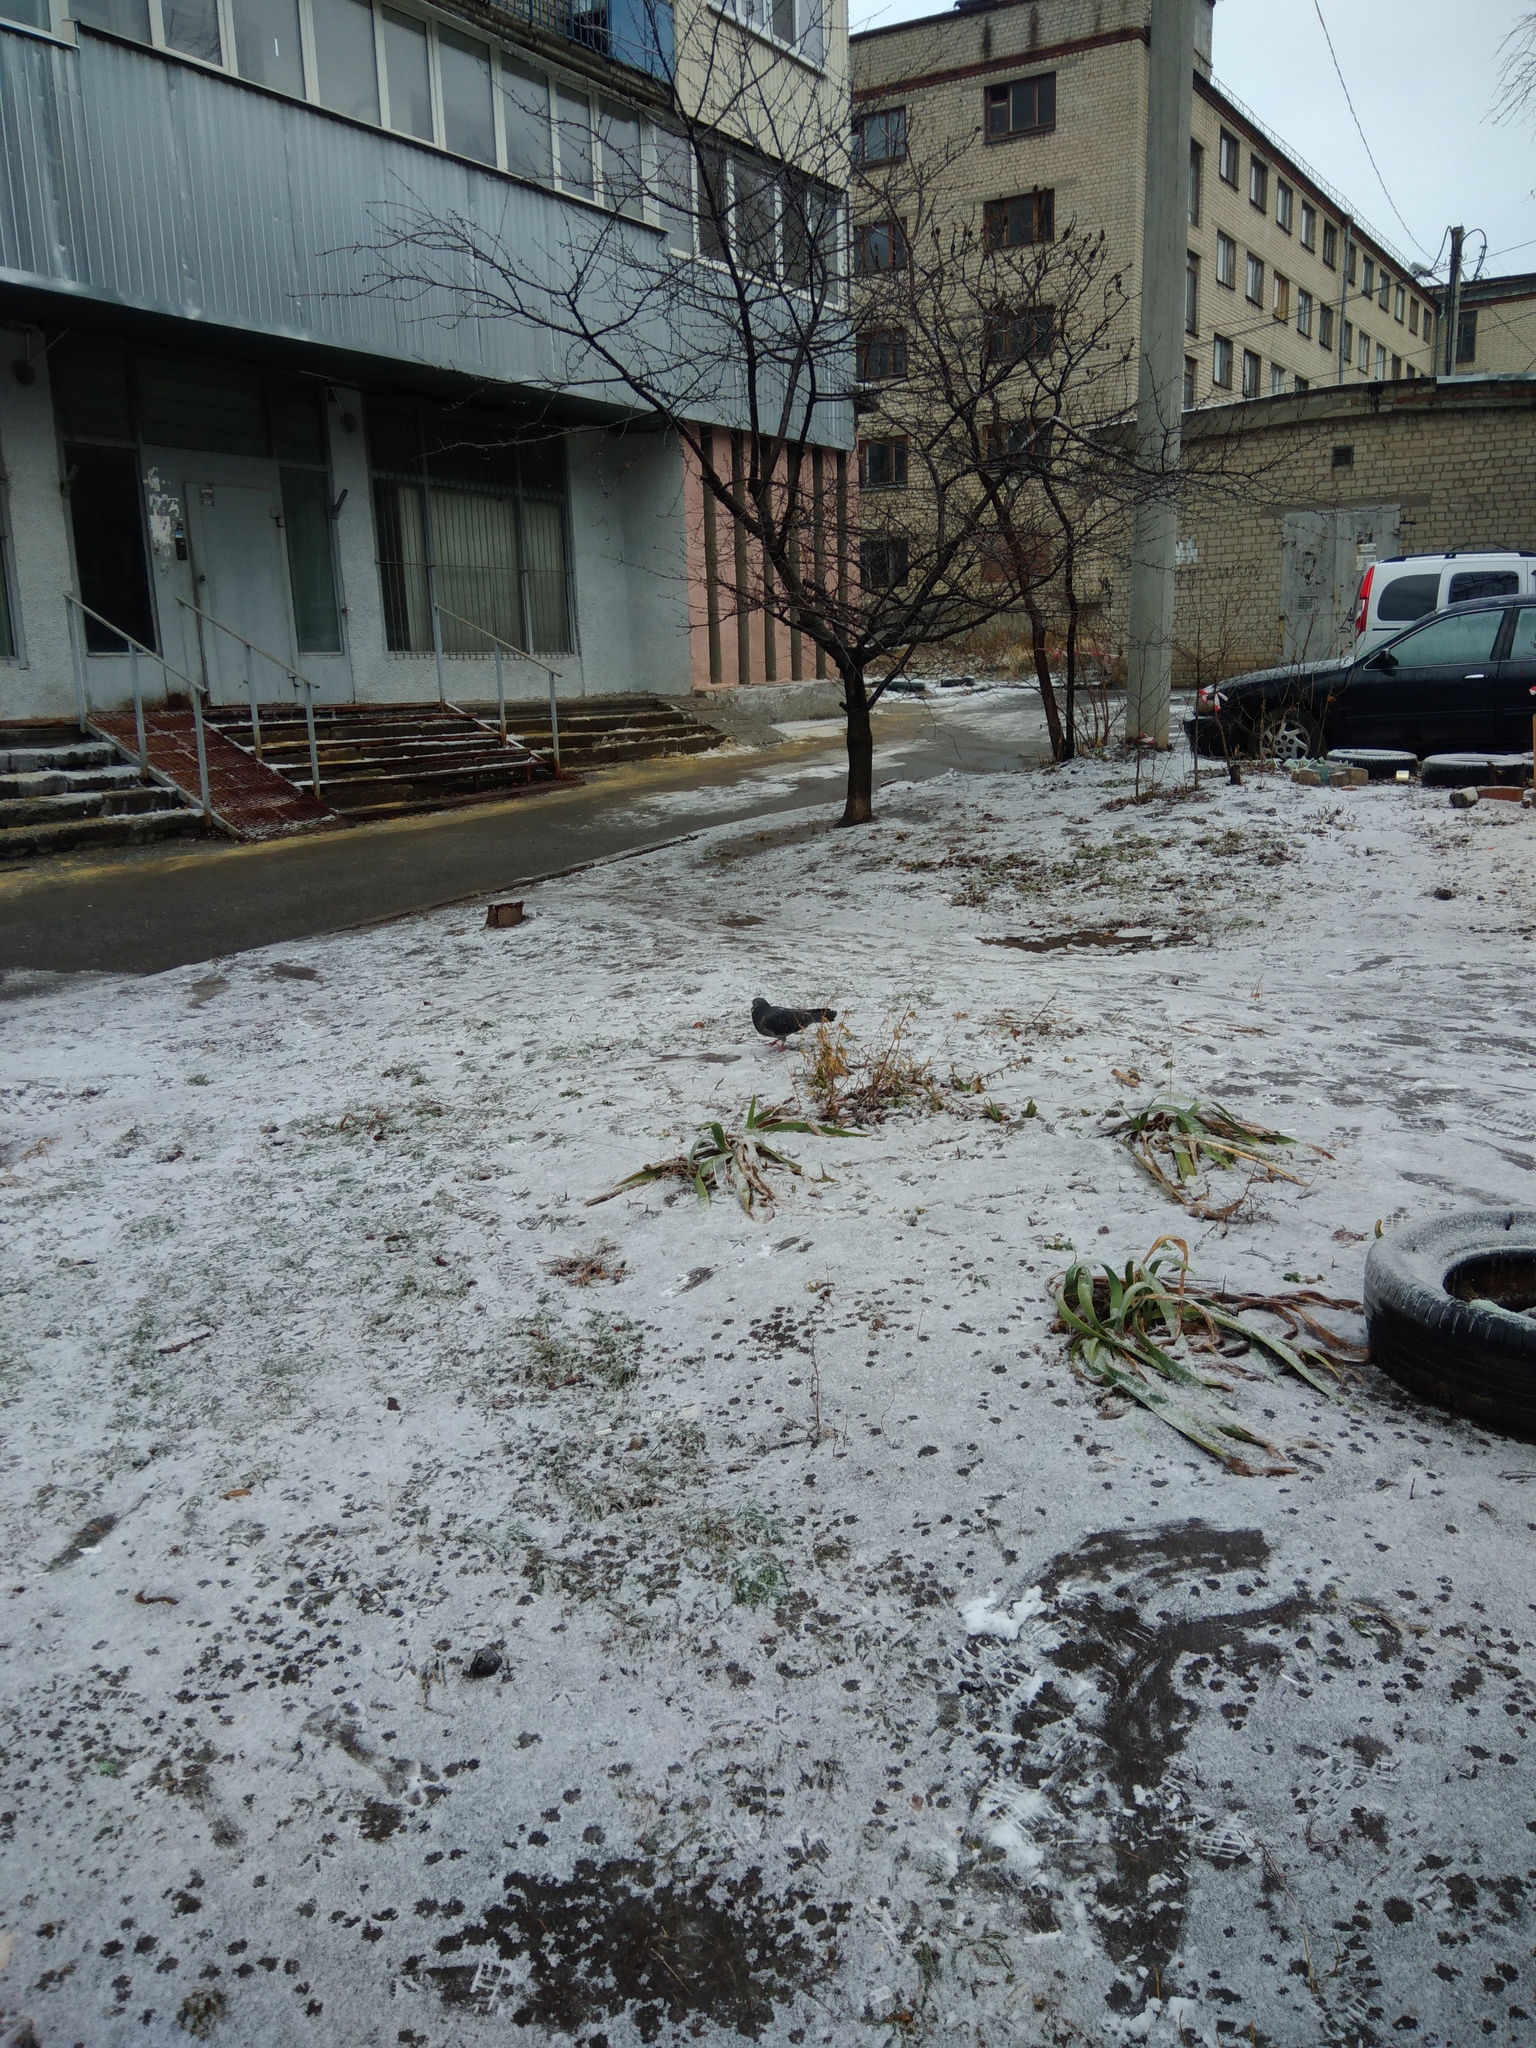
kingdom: Animalia
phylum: Chordata
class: Aves
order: Columbiformes
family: Columbidae
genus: Columba
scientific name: Columba livia
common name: Rock pigeon
